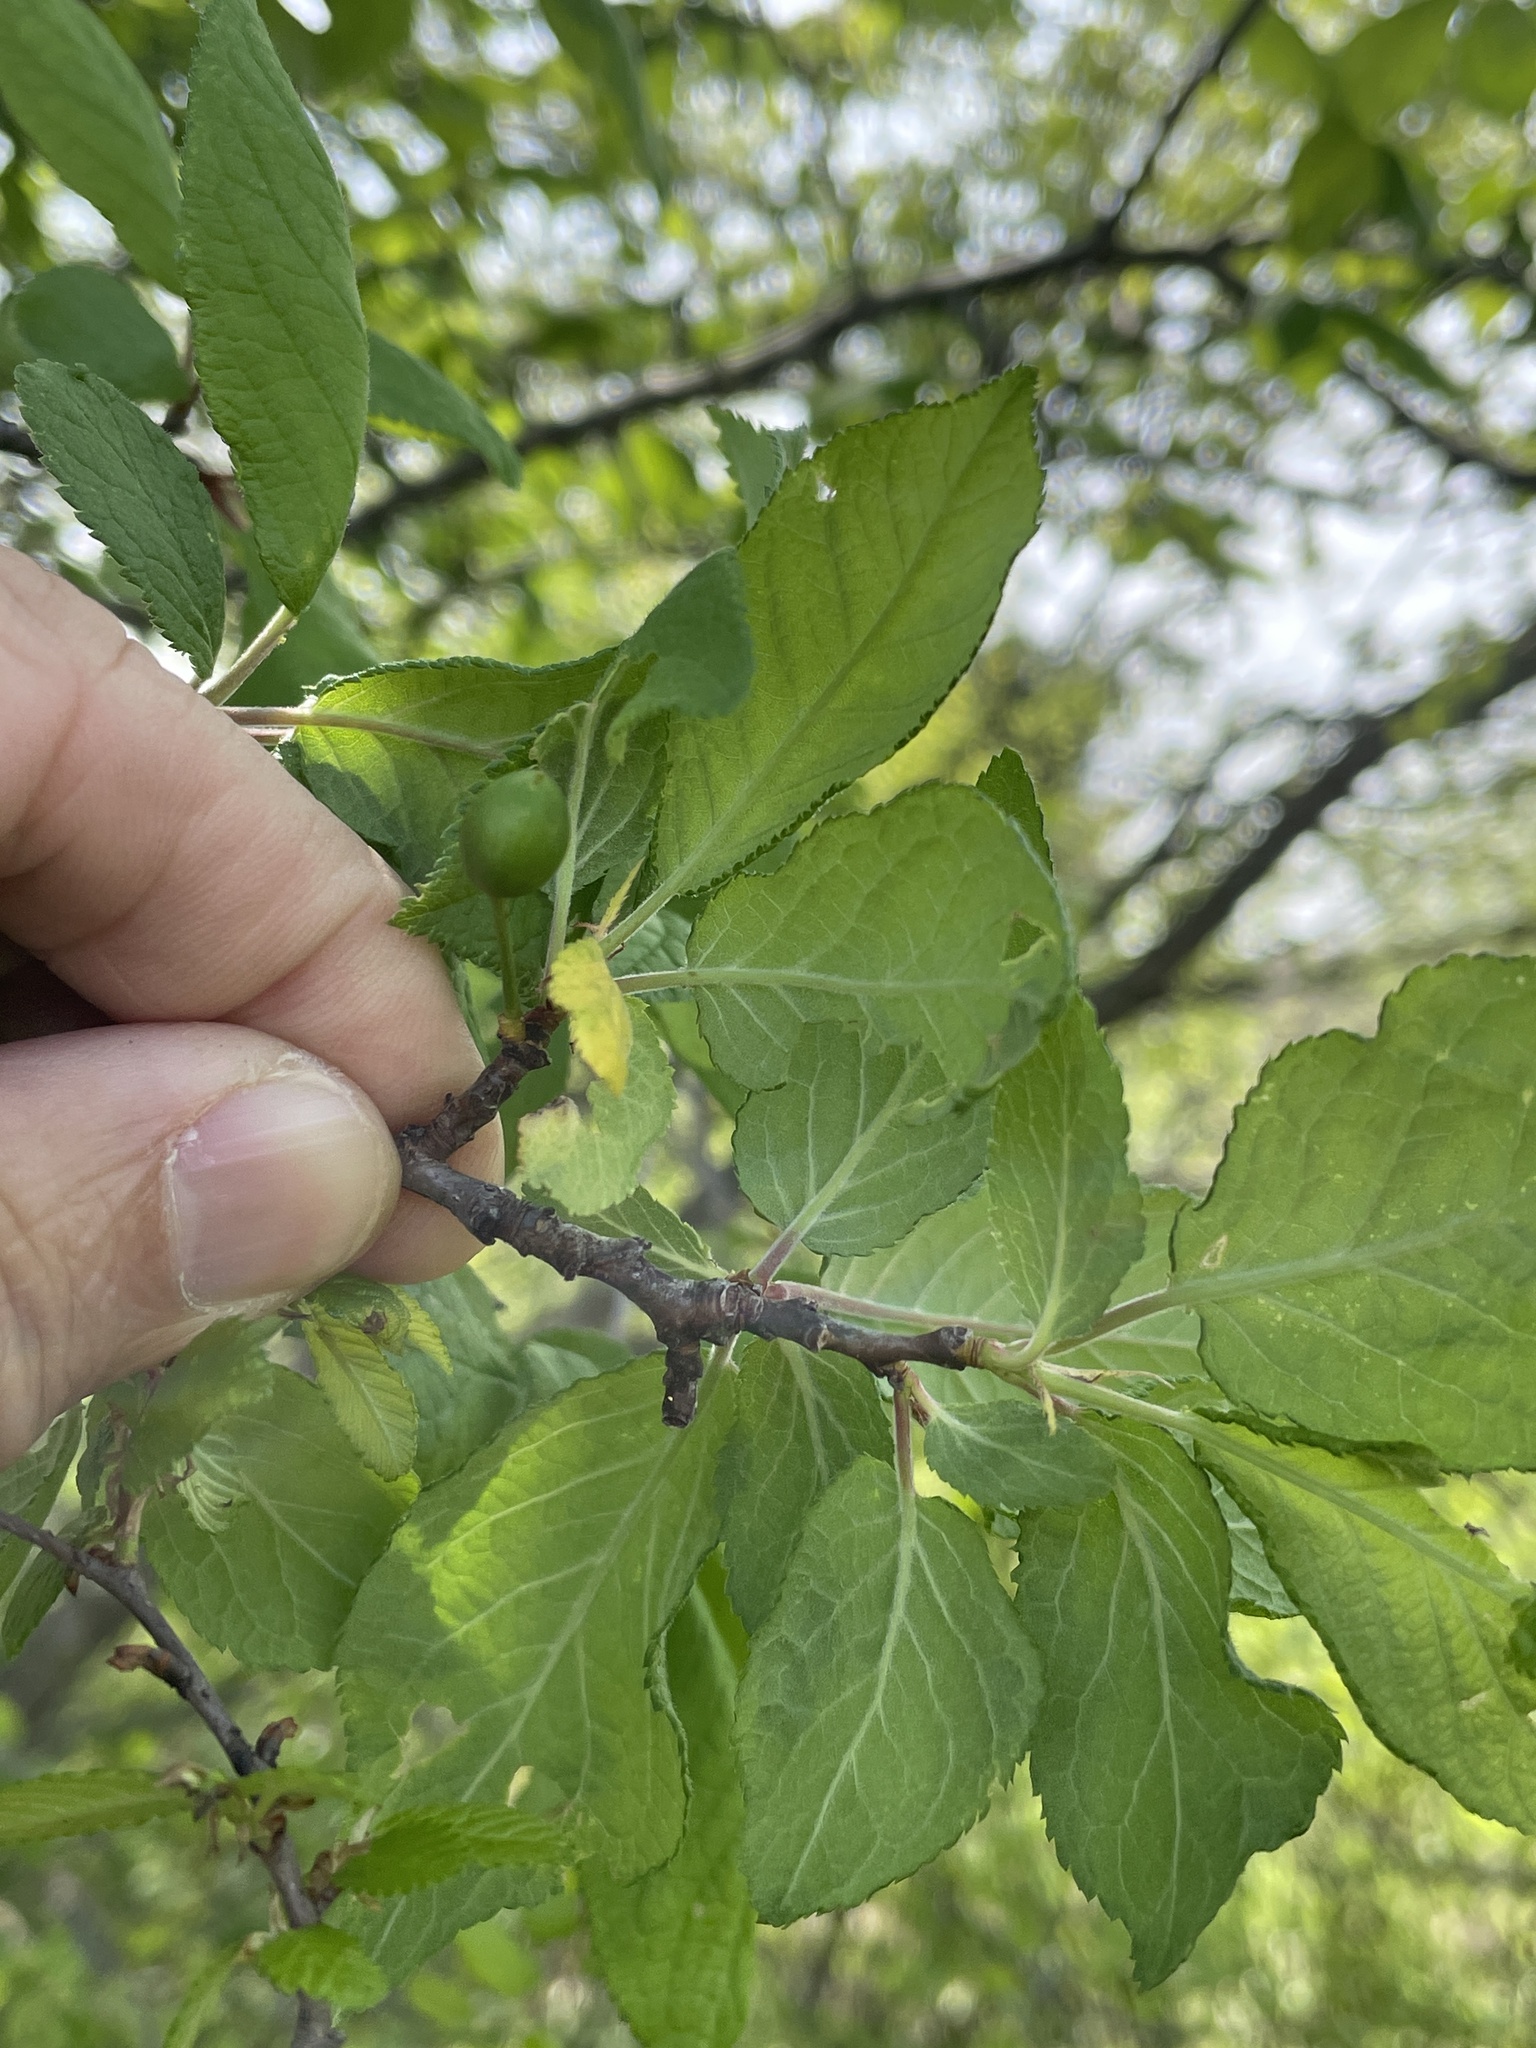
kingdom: Plantae
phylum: Tracheophyta
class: Magnoliopsida
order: Rosales
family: Rosaceae
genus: Prunus
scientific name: Prunus mexicana
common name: Mexican plum
